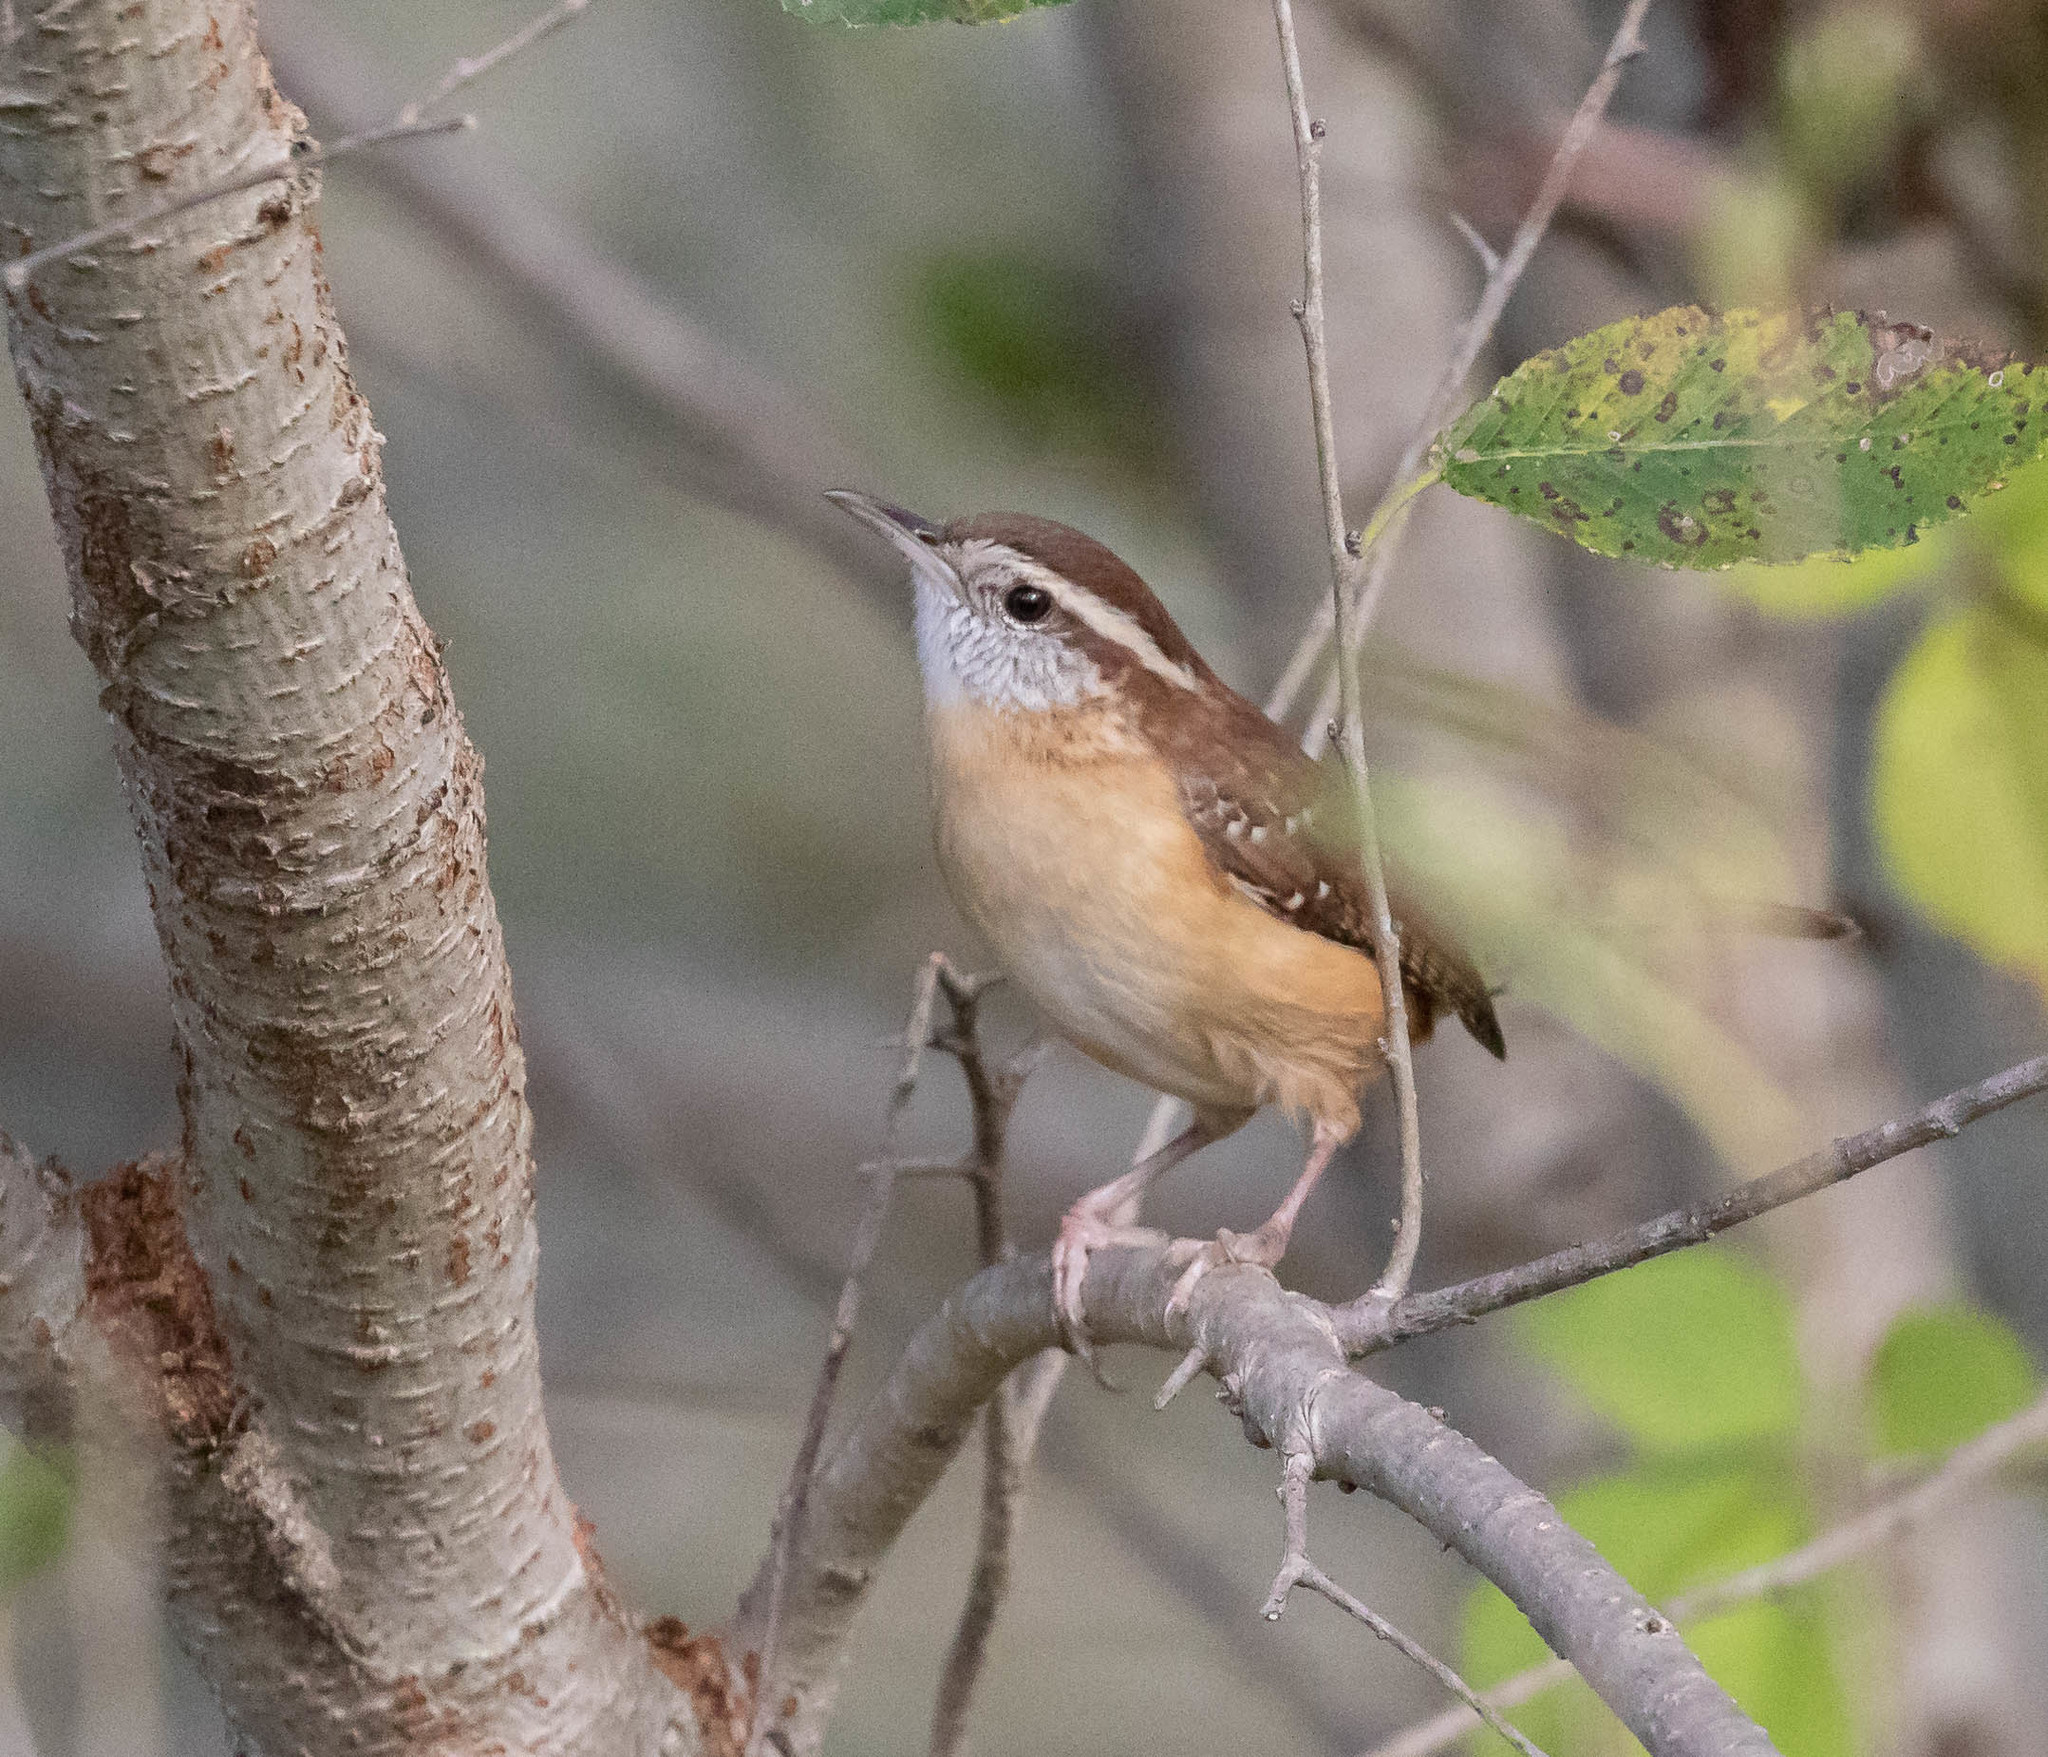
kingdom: Animalia
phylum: Chordata
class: Aves
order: Passeriformes
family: Troglodytidae
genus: Thryothorus
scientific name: Thryothorus ludovicianus
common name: Carolina wren
